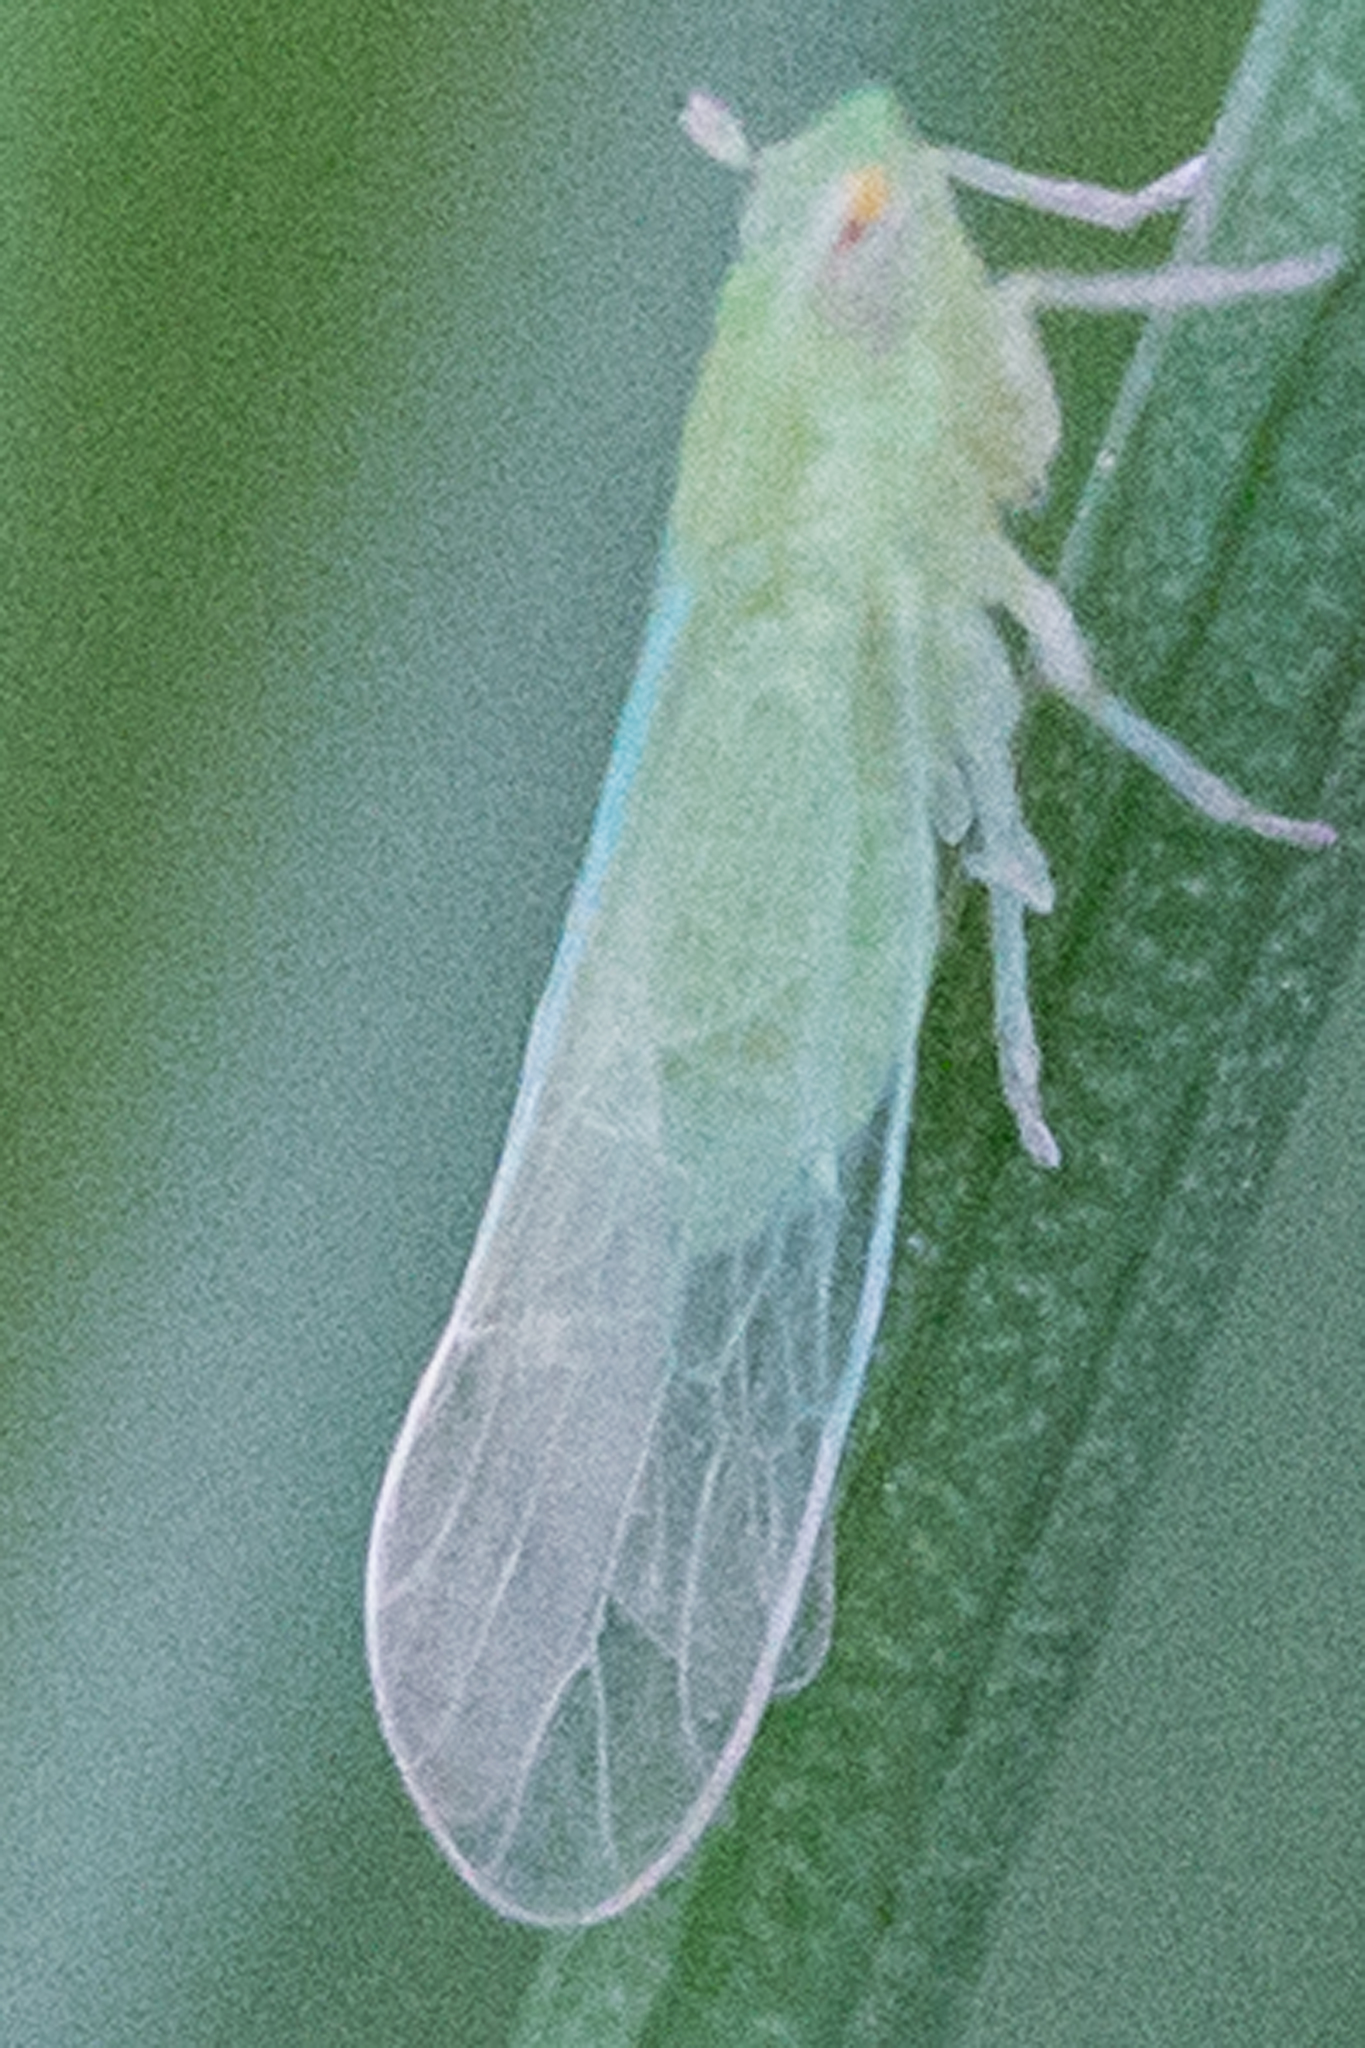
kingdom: Animalia
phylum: Arthropoda
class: Insecta
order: Hemiptera
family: Delphacidae
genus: Saccharosydne
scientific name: Saccharosydne saccharivora
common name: Delphacid planthopper
